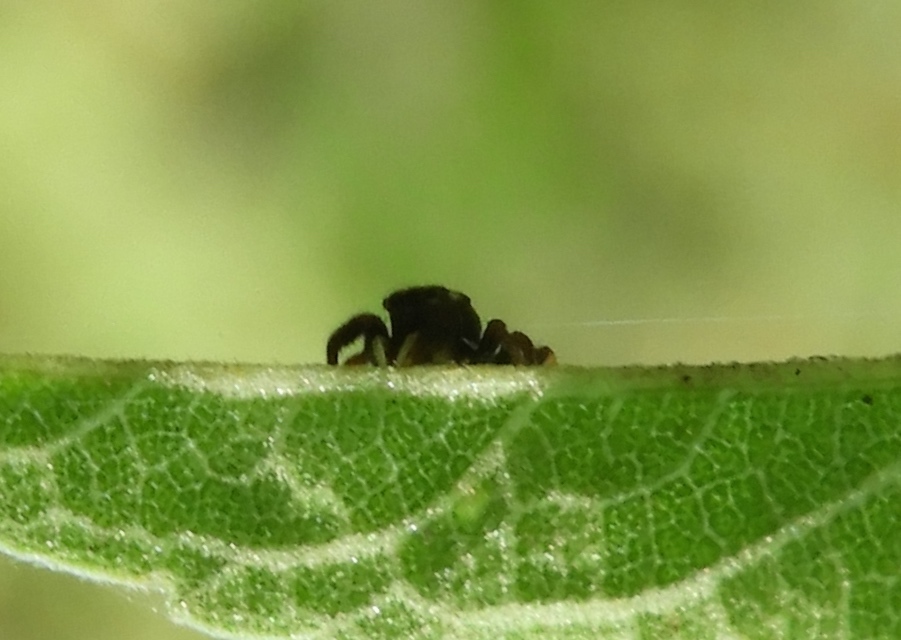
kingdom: Animalia
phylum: Arthropoda
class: Arachnida
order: Araneae
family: Salticidae
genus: Sassacus
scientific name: Sassacus
